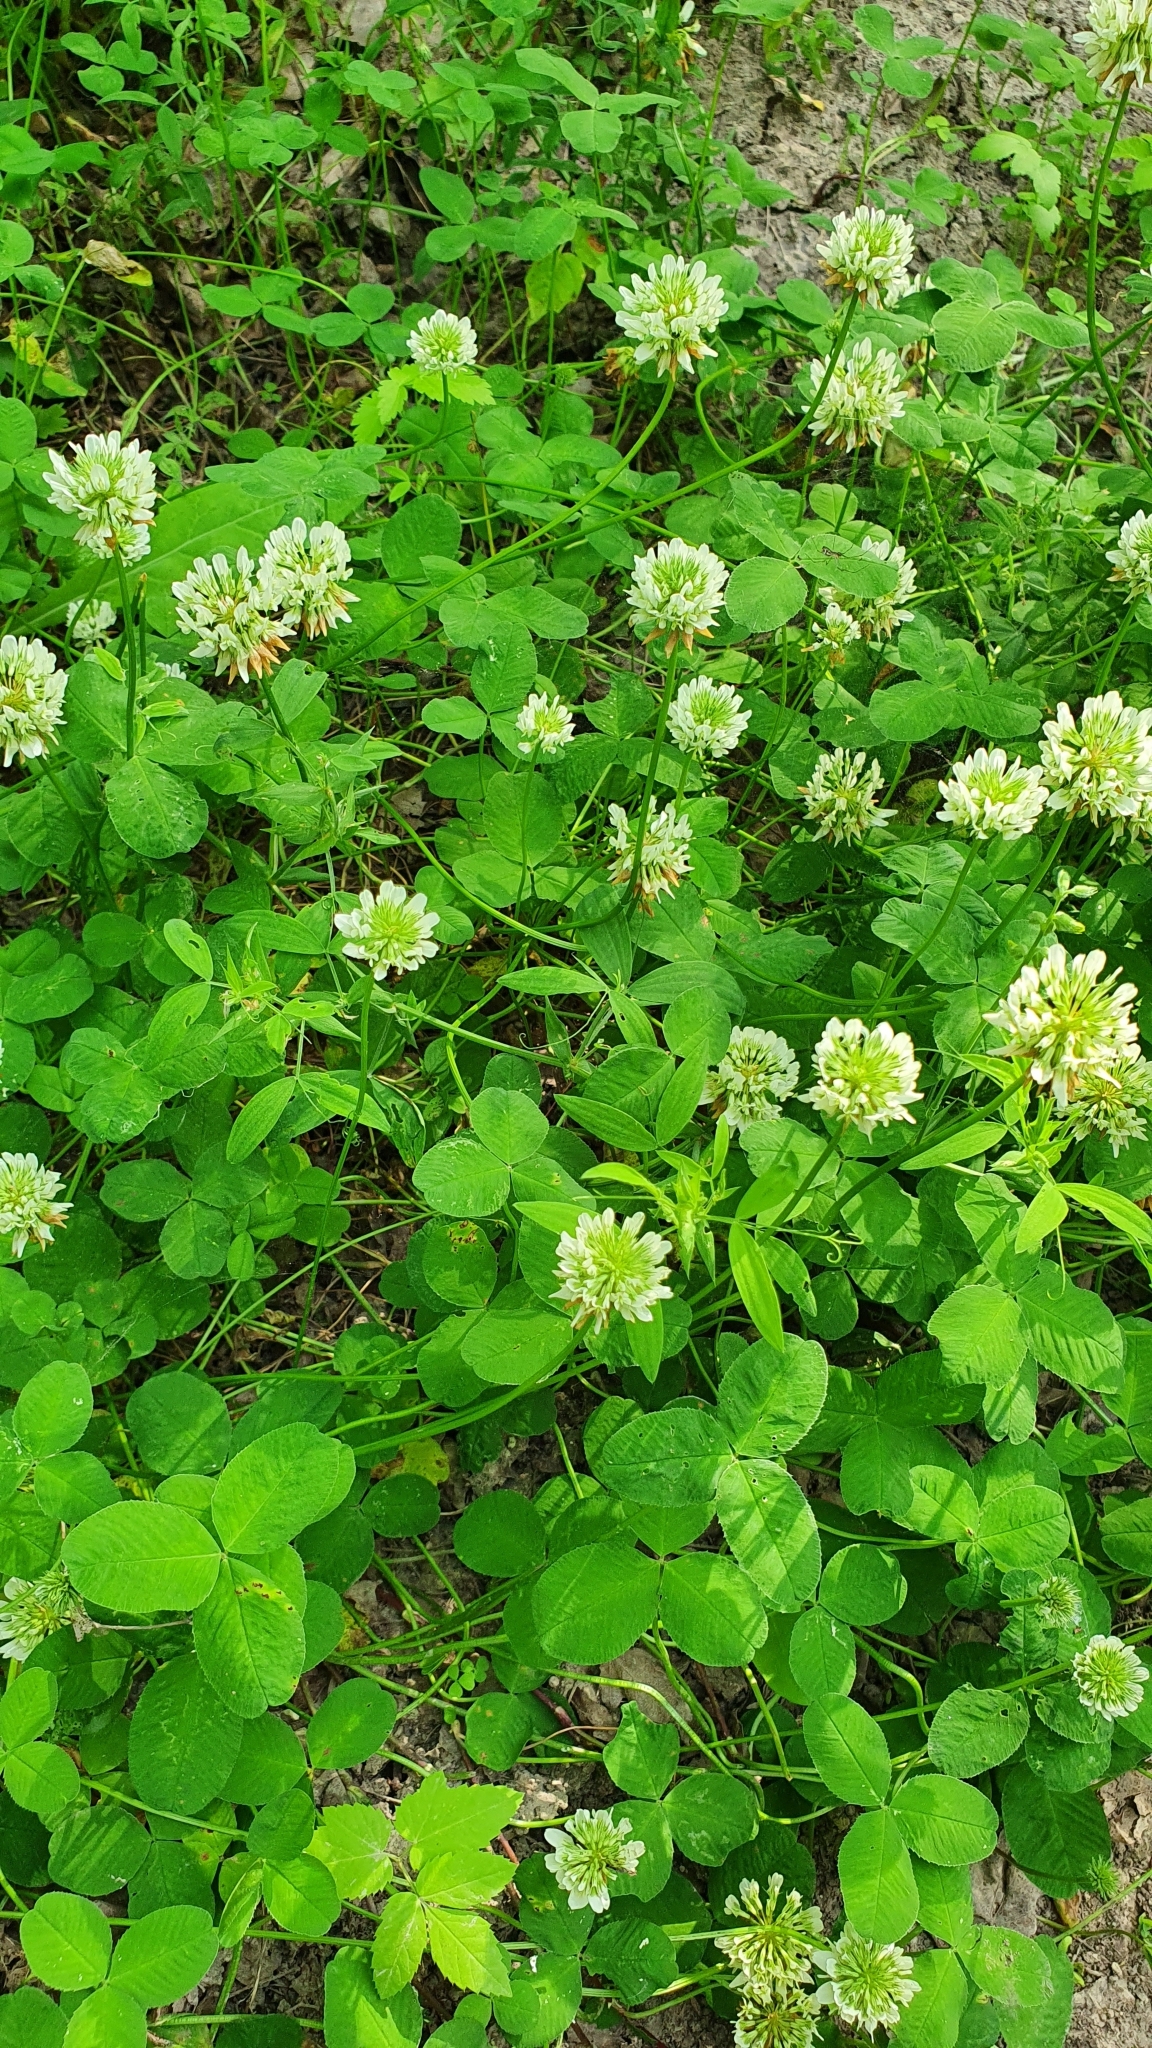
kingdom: Plantae
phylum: Tracheophyta
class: Magnoliopsida
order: Fabales
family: Fabaceae
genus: Trifolium
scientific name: Trifolium repens
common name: White clover
